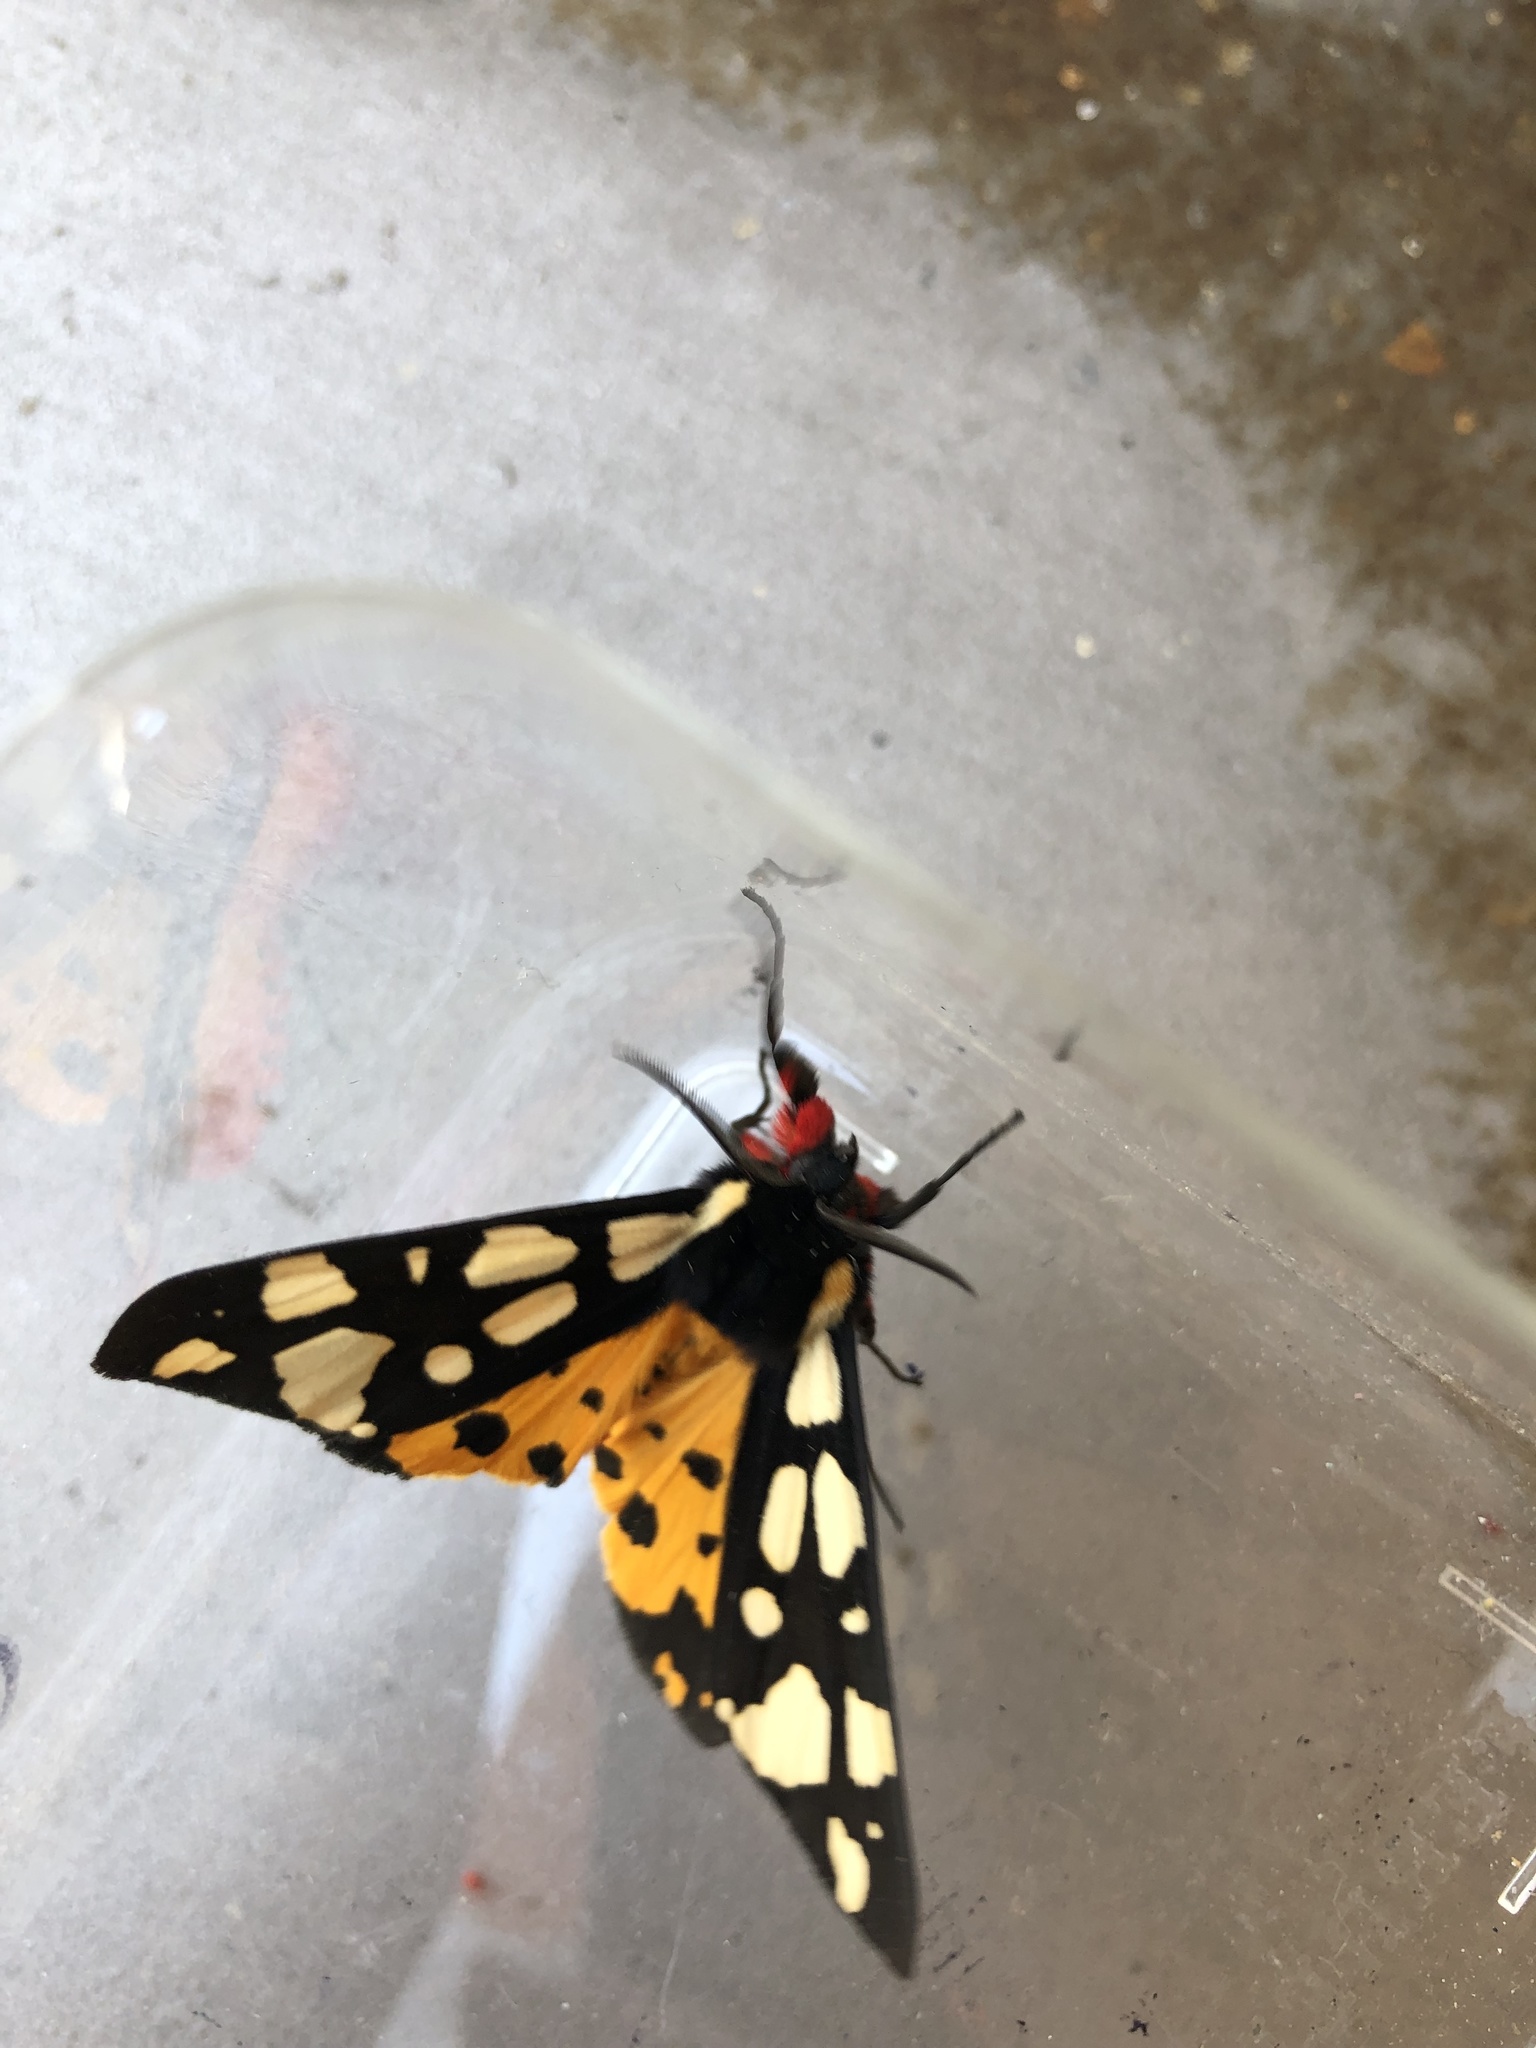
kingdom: Animalia
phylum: Arthropoda
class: Insecta
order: Lepidoptera
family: Erebidae
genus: Epicallia
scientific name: Epicallia villica
